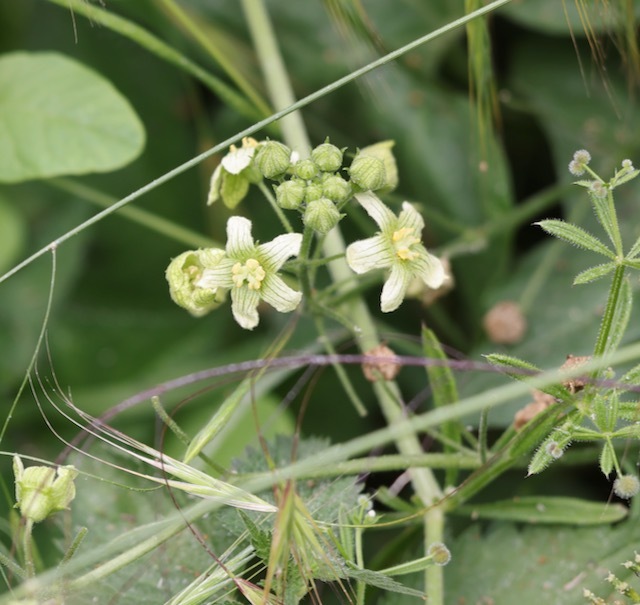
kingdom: Plantae
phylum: Tracheophyta
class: Magnoliopsida
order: Cucurbitales
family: Cucurbitaceae
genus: Bryonia
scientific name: Bryonia cretica
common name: Cretan bryony
